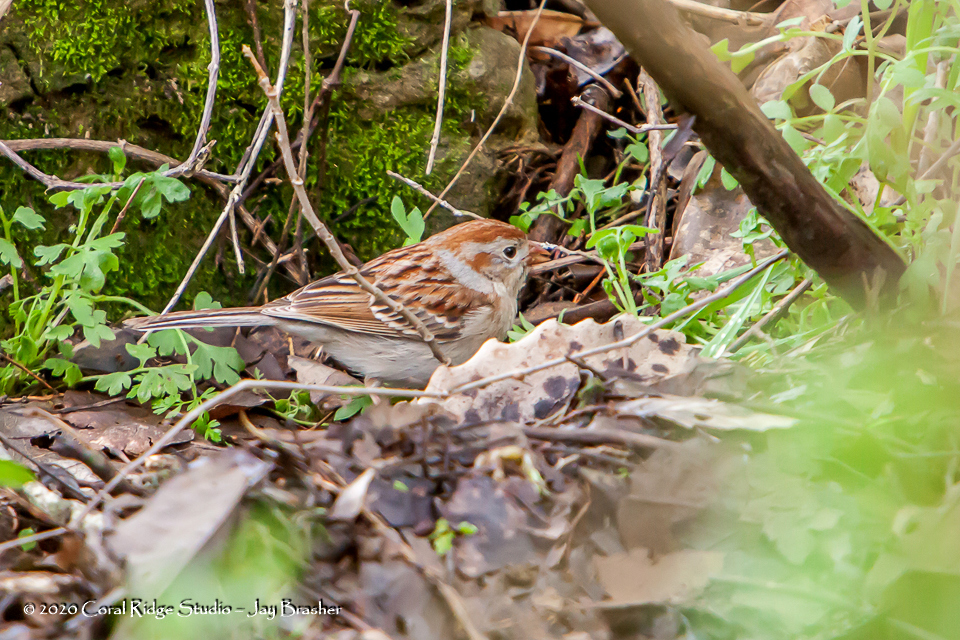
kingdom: Animalia
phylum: Chordata
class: Aves
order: Passeriformes
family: Passerellidae
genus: Spizella
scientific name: Spizella pusilla
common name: Field sparrow
